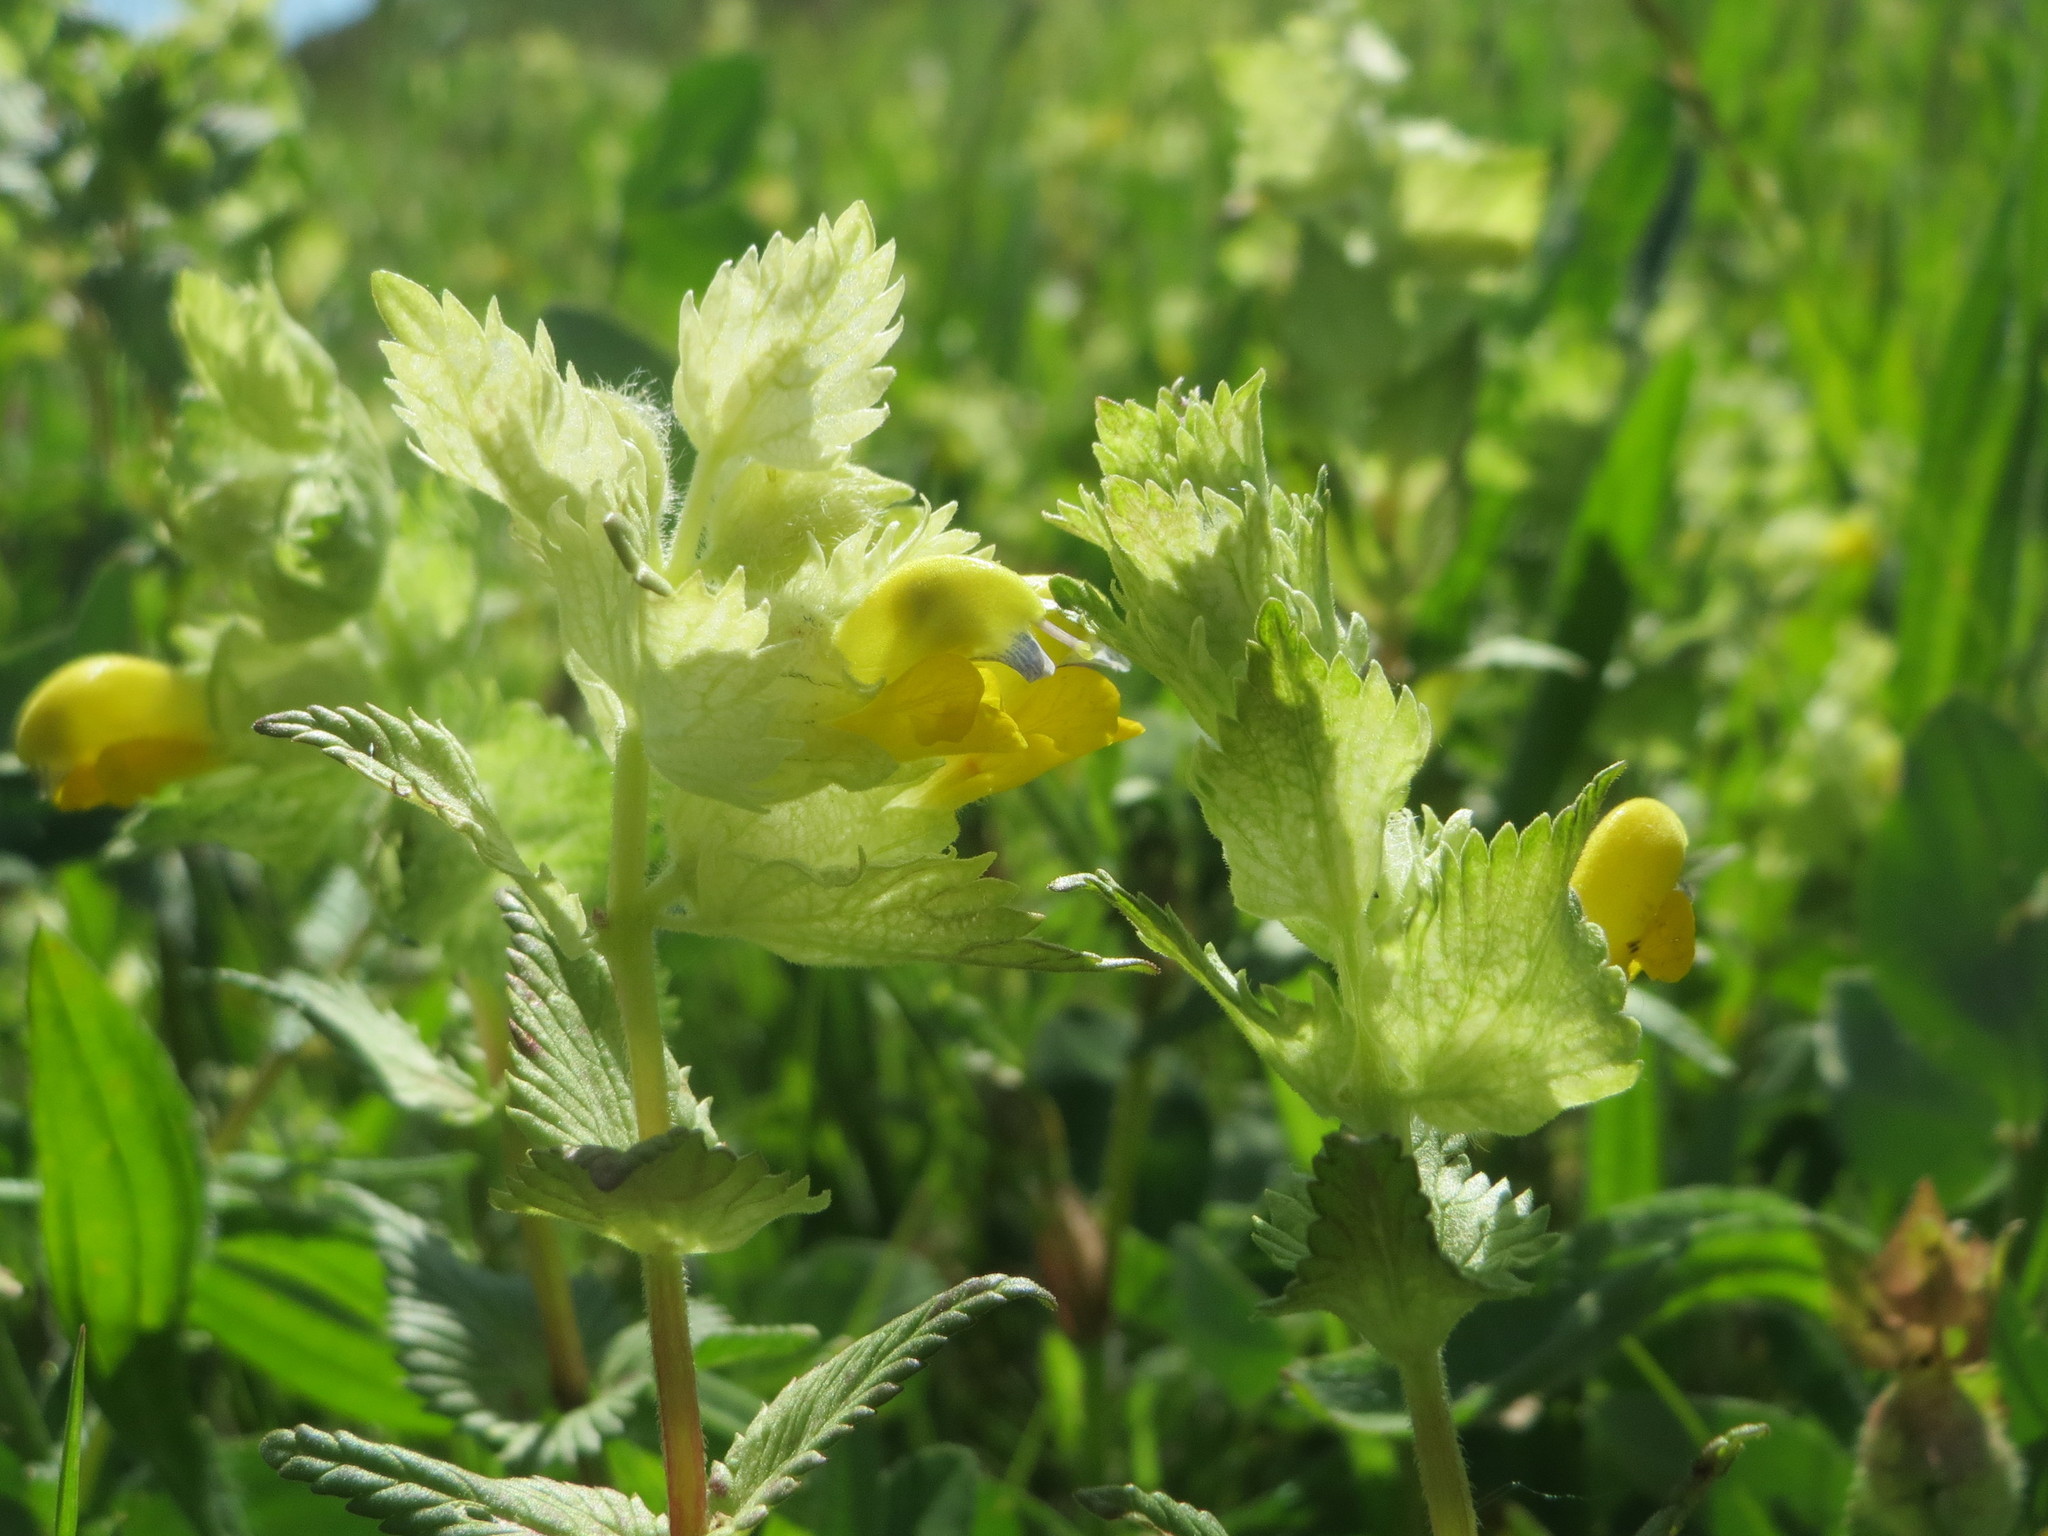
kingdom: Plantae
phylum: Tracheophyta
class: Magnoliopsida
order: Lamiales
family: Orobanchaceae
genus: Rhinanthus
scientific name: Rhinanthus alectorolophus
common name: Greater yellow-rattle
